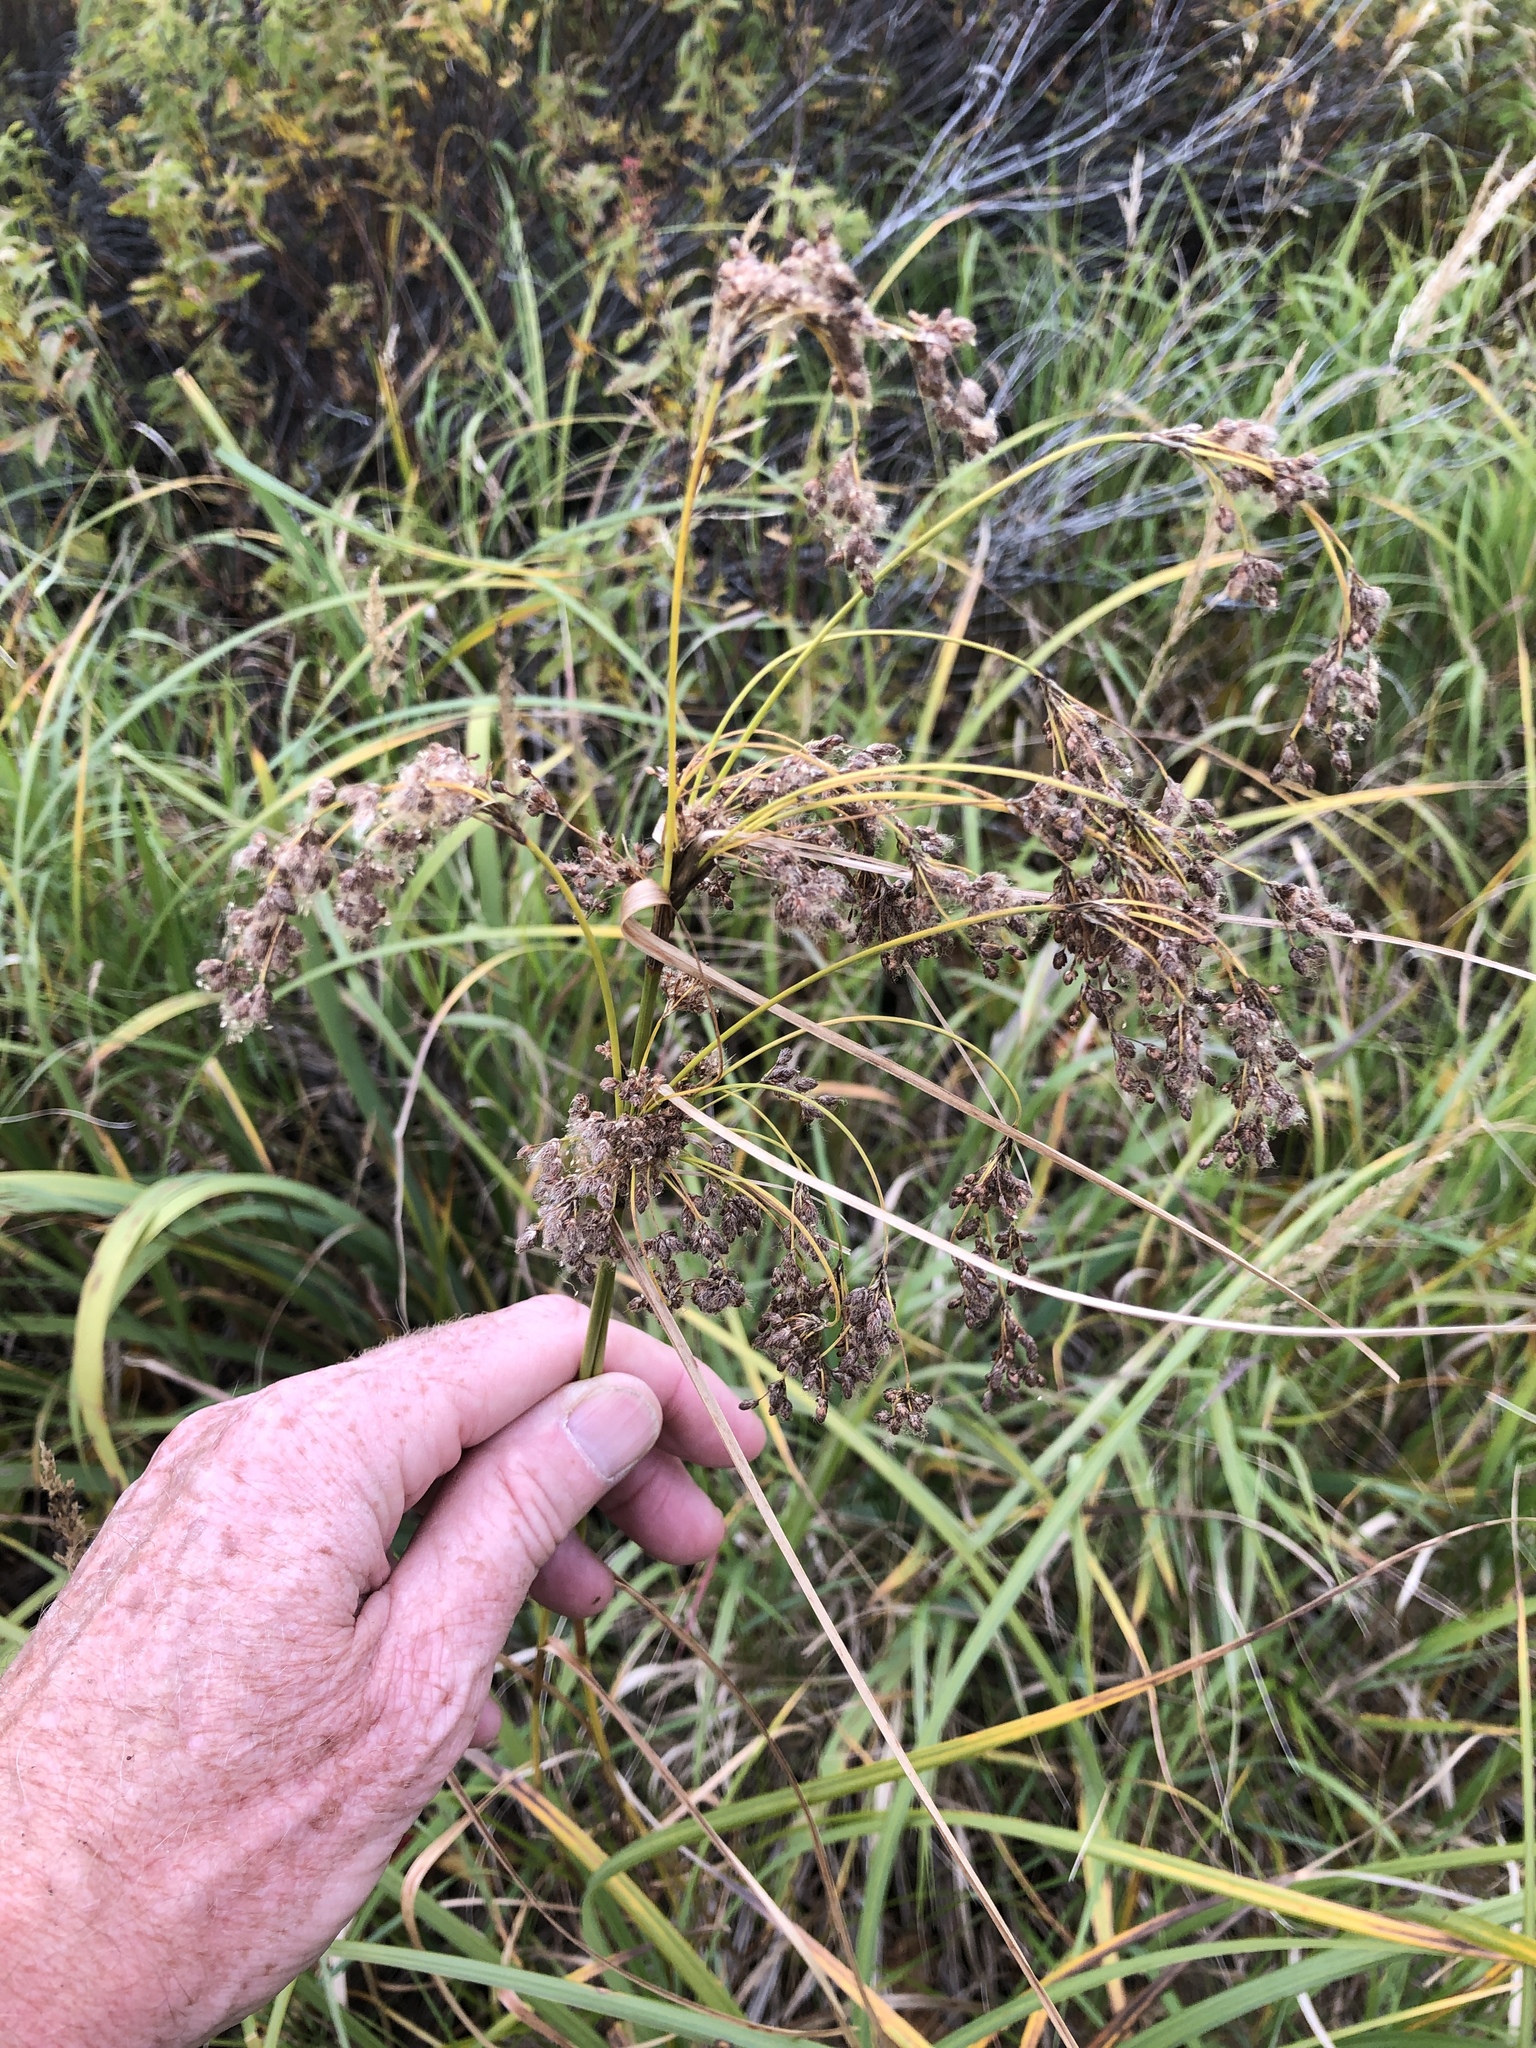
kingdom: Plantae
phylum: Tracheophyta
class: Liliopsida
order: Poales
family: Cyperaceae
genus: Scirpus
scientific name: Scirpus cyperinus
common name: Black-sheathed bulrush
